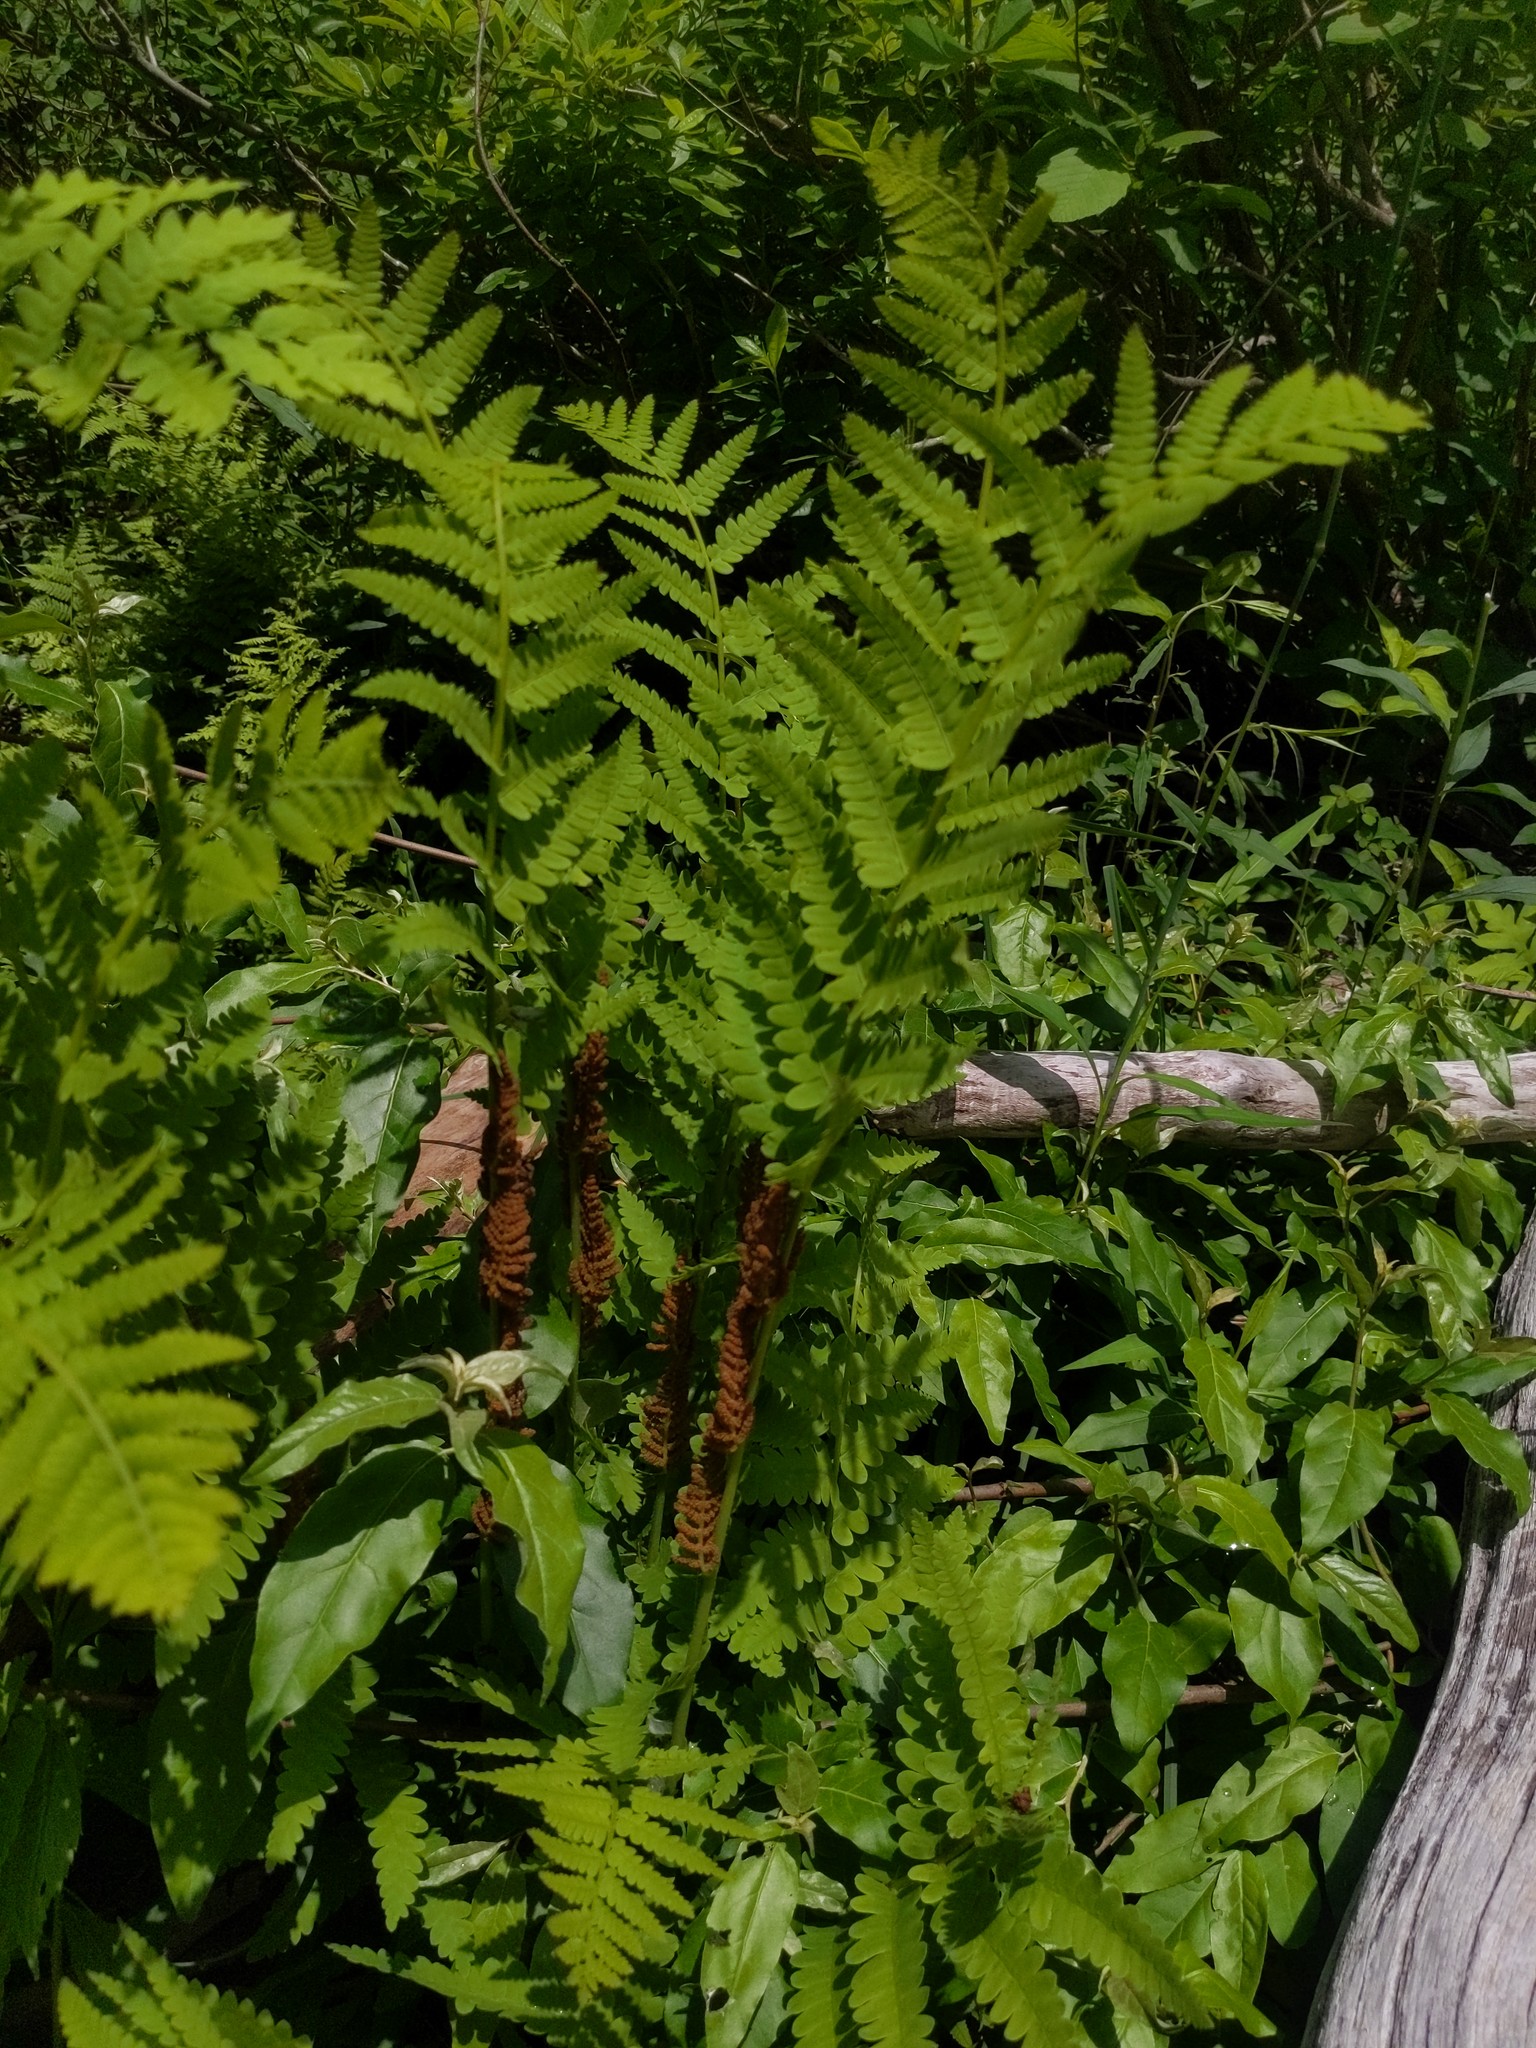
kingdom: Plantae
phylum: Tracheophyta
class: Polypodiopsida
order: Osmundales
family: Osmundaceae
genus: Claytosmunda
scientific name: Claytosmunda claytoniana
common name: Clayton's fern
